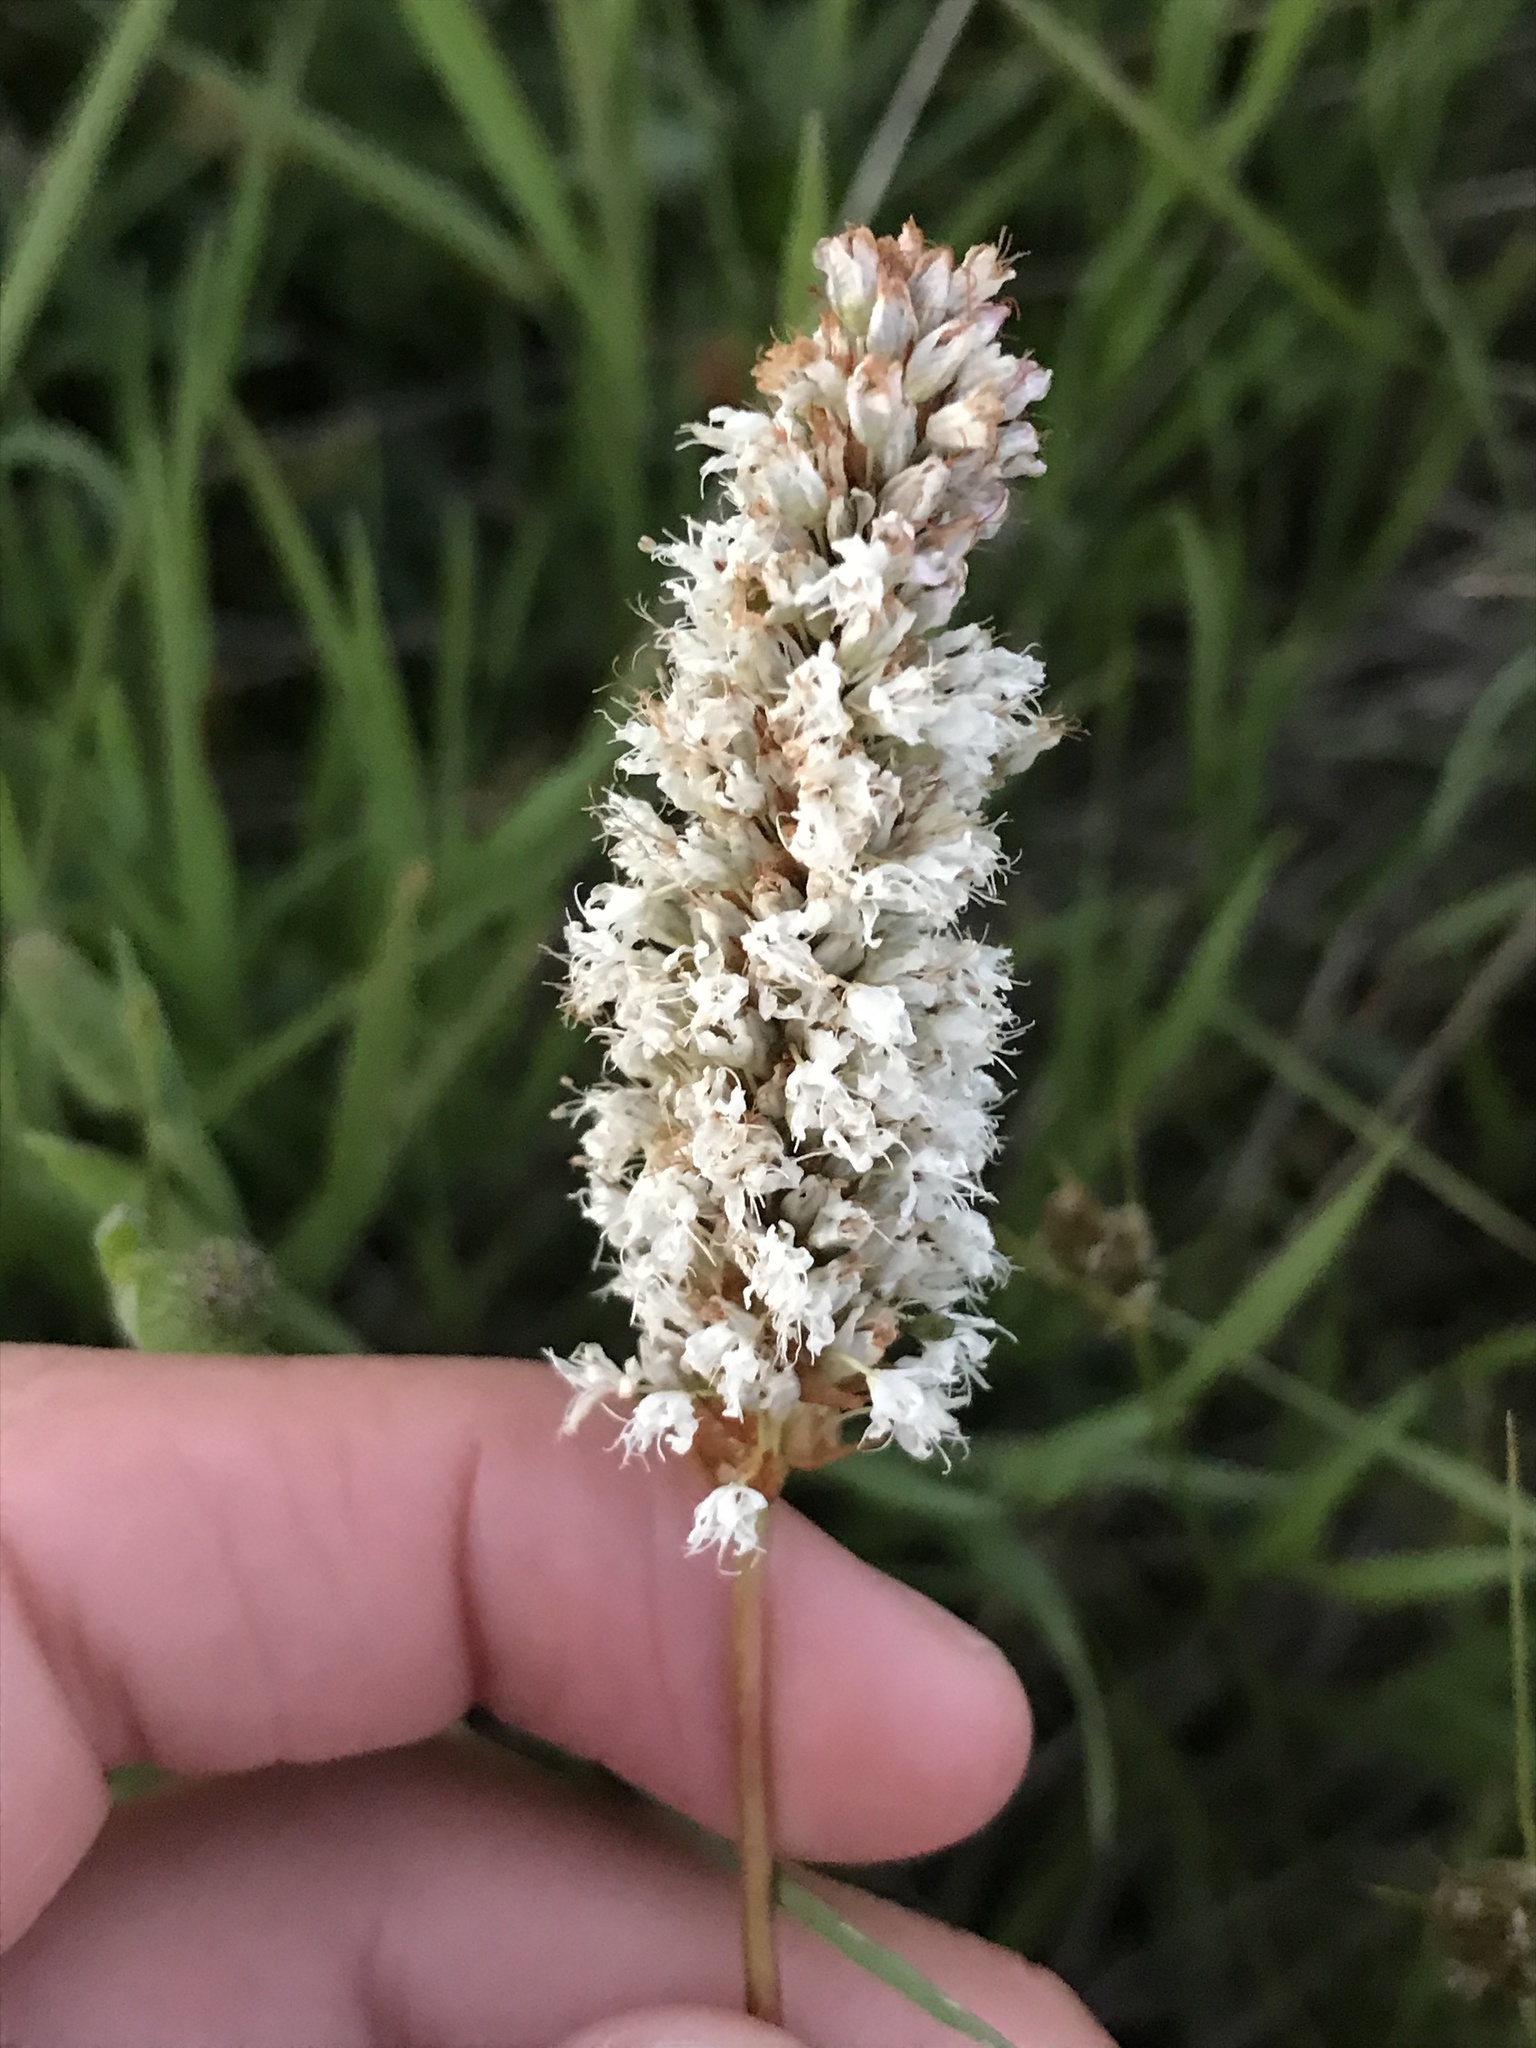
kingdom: Plantae
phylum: Tracheophyta
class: Magnoliopsida
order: Caryophyllales
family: Polygonaceae
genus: Bistorta
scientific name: Bistorta bistortoides
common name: American bistort
